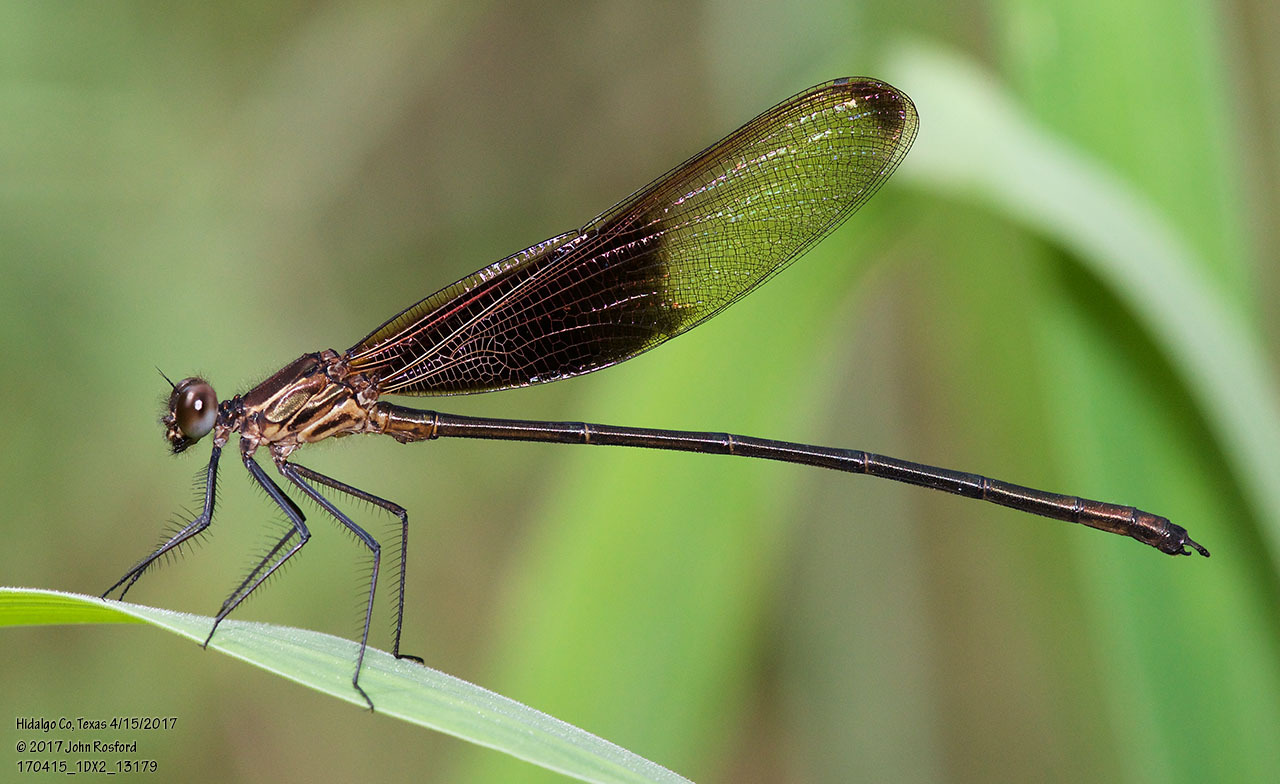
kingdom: Animalia
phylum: Arthropoda
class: Insecta
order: Odonata
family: Calopterygidae
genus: Hetaerina
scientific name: Hetaerina titia
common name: Smoky rubyspot
